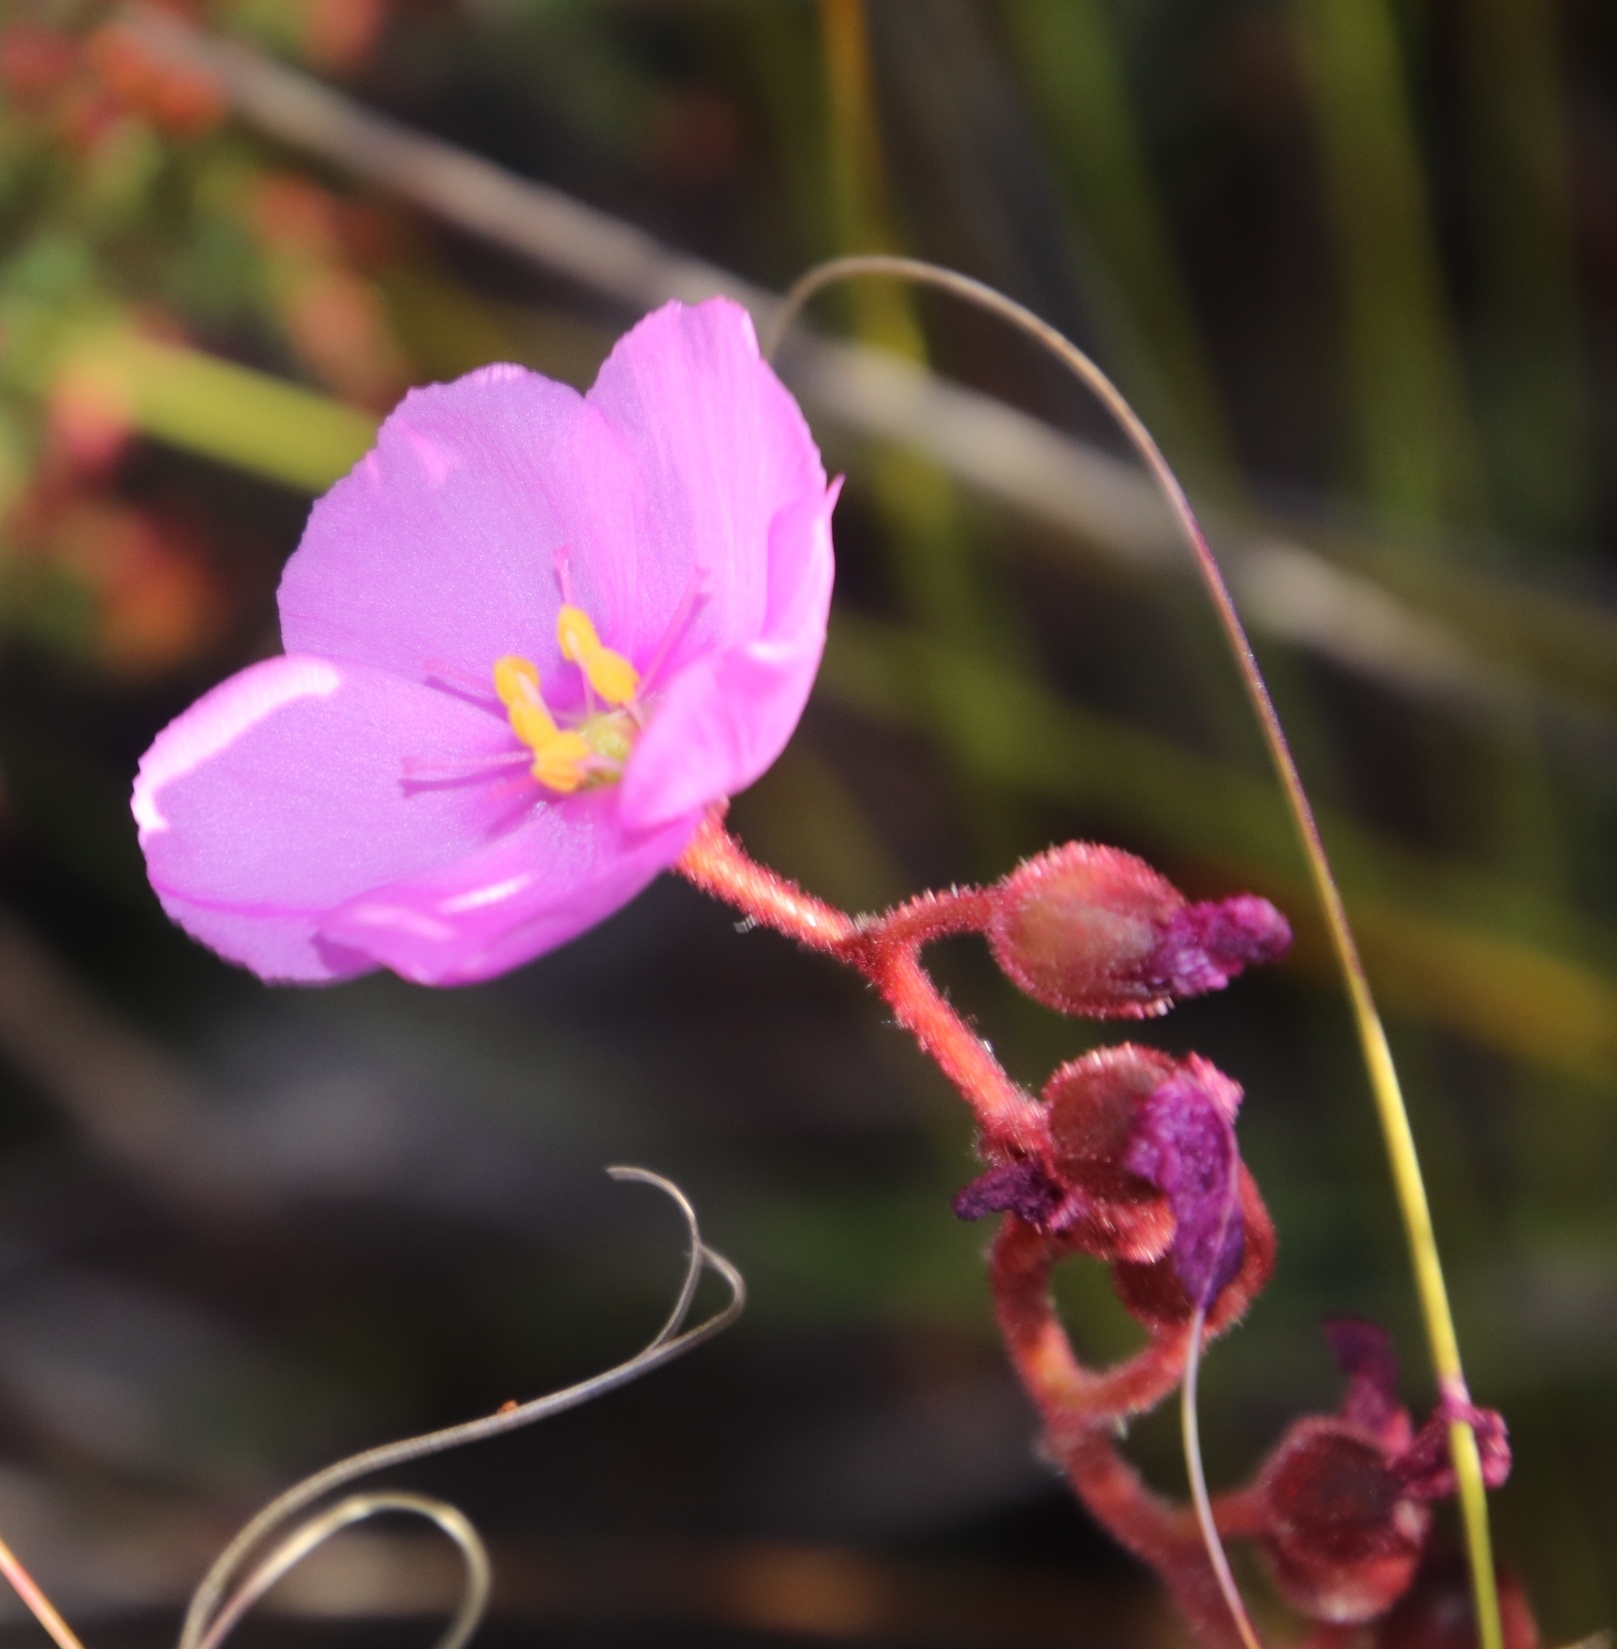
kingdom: Plantae
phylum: Tracheophyta
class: Magnoliopsida
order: Caryophyllales
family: Droseraceae
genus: Drosera
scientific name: Drosera hilaris
